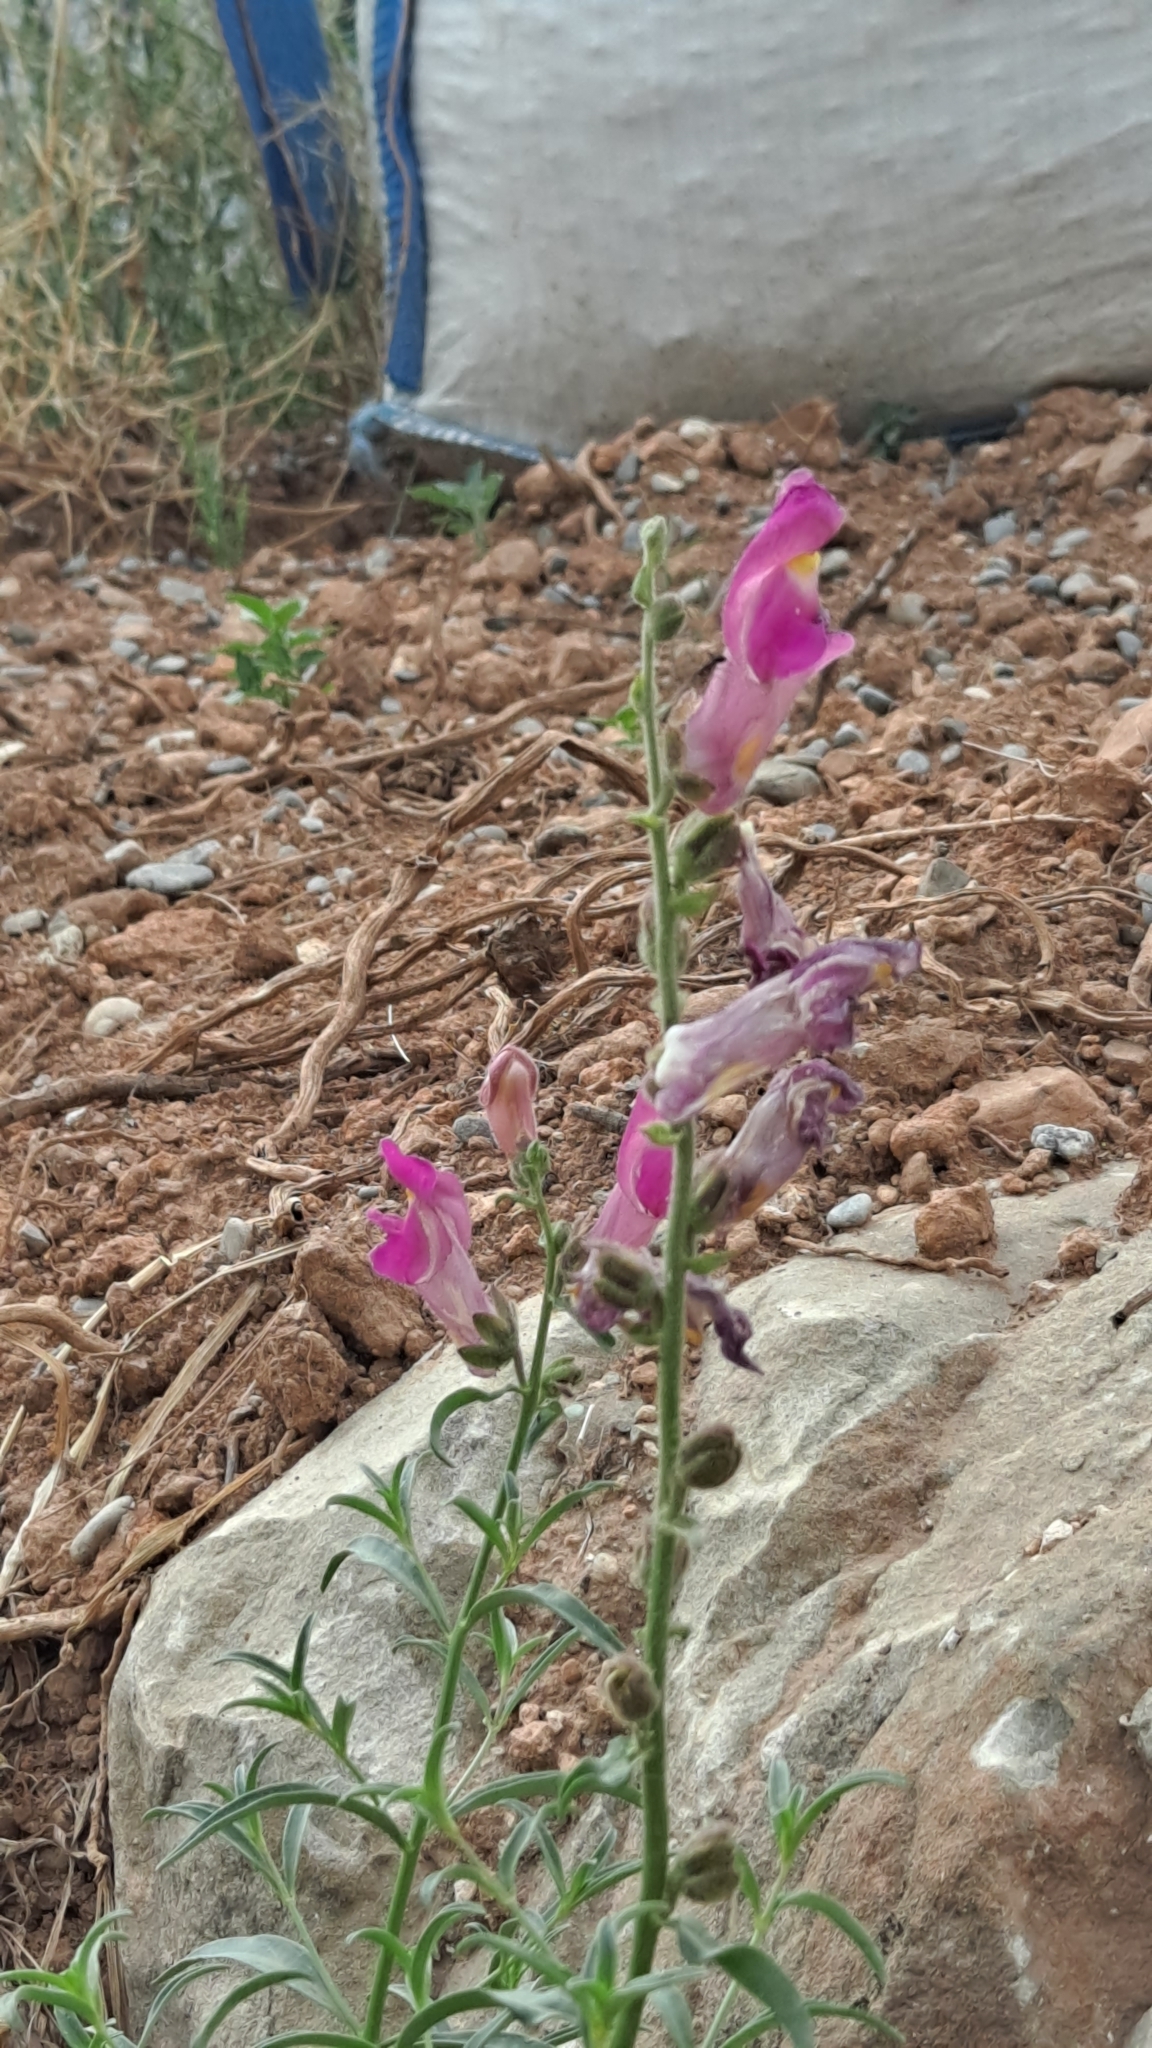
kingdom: Plantae
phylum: Tracheophyta
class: Magnoliopsida
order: Lamiales
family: Plantaginaceae
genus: Antirrhinum
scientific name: Antirrhinum majus
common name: Snapdragon
